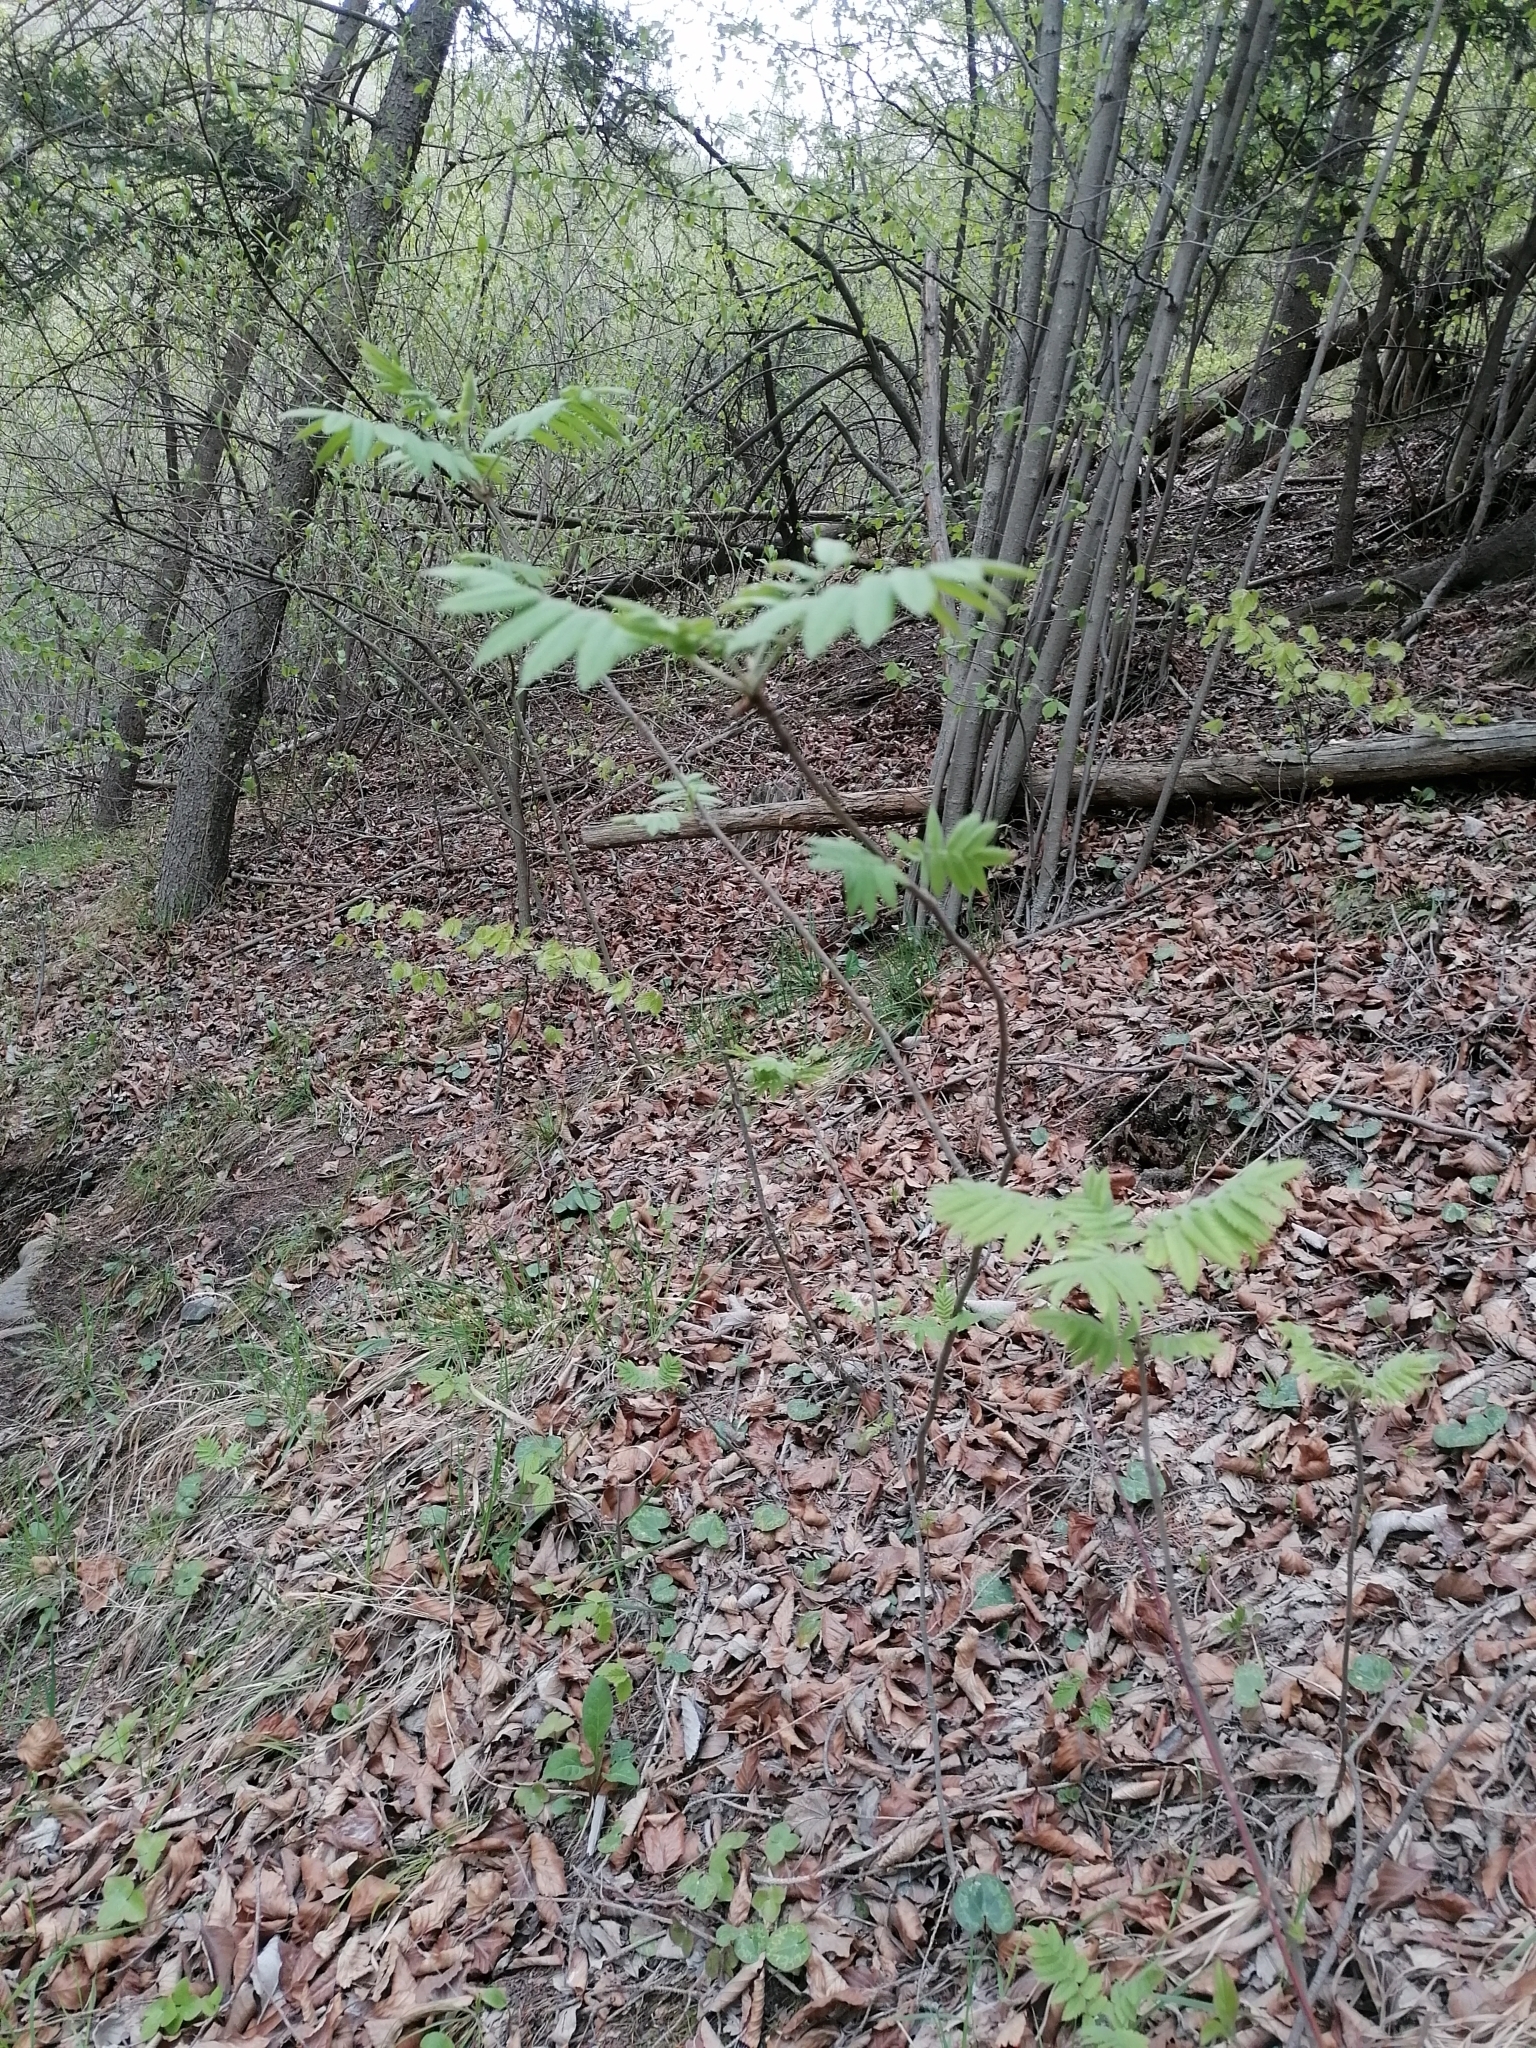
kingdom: Plantae
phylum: Tracheophyta
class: Magnoliopsida
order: Rosales
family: Rosaceae
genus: Sorbus
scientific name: Sorbus aucuparia
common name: Rowan
